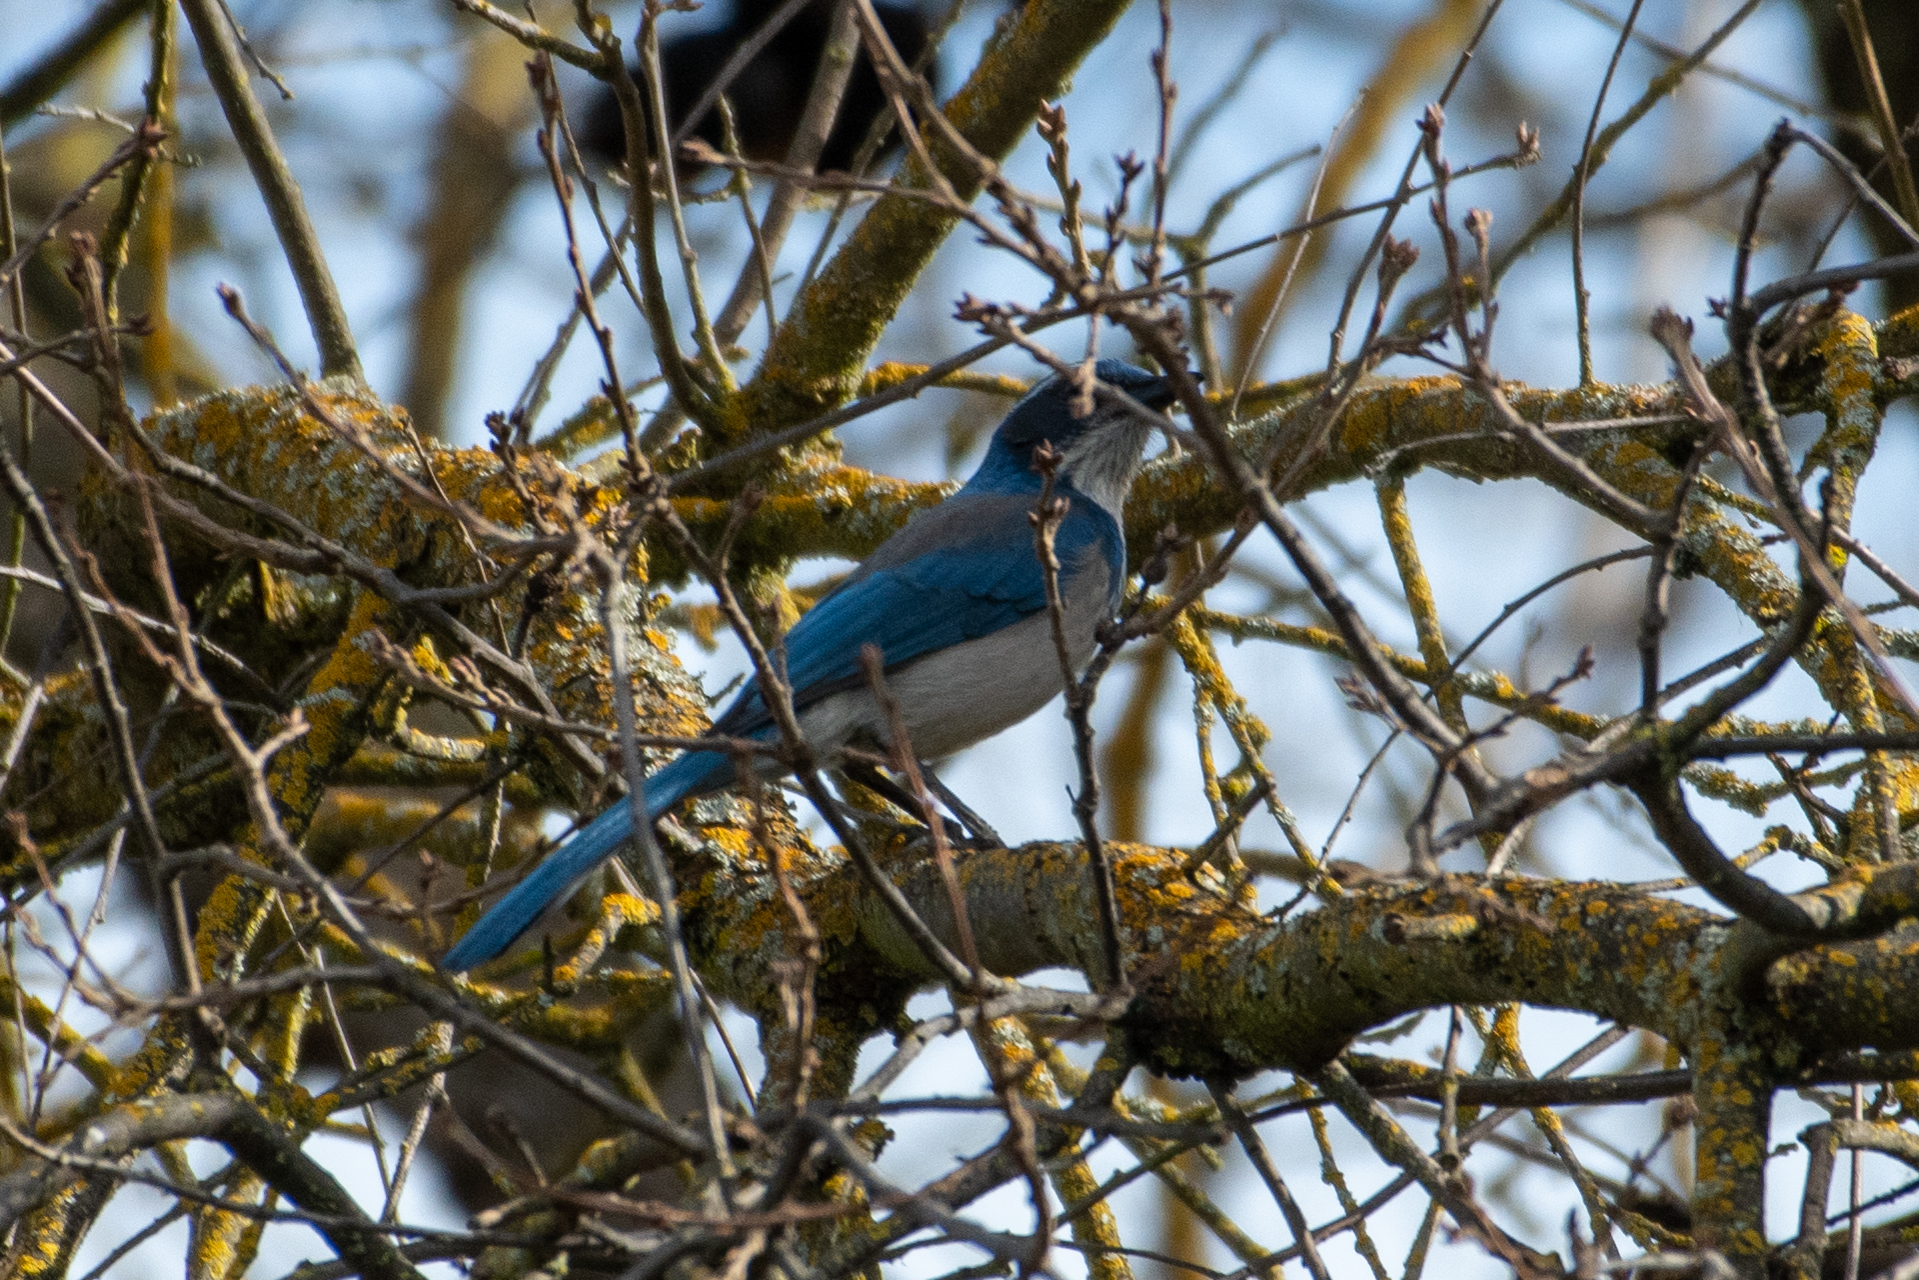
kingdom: Animalia
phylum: Chordata
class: Aves
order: Passeriformes
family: Corvidae
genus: Aphelocoma
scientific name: Aphelocoma californica
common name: California scrub-jay
